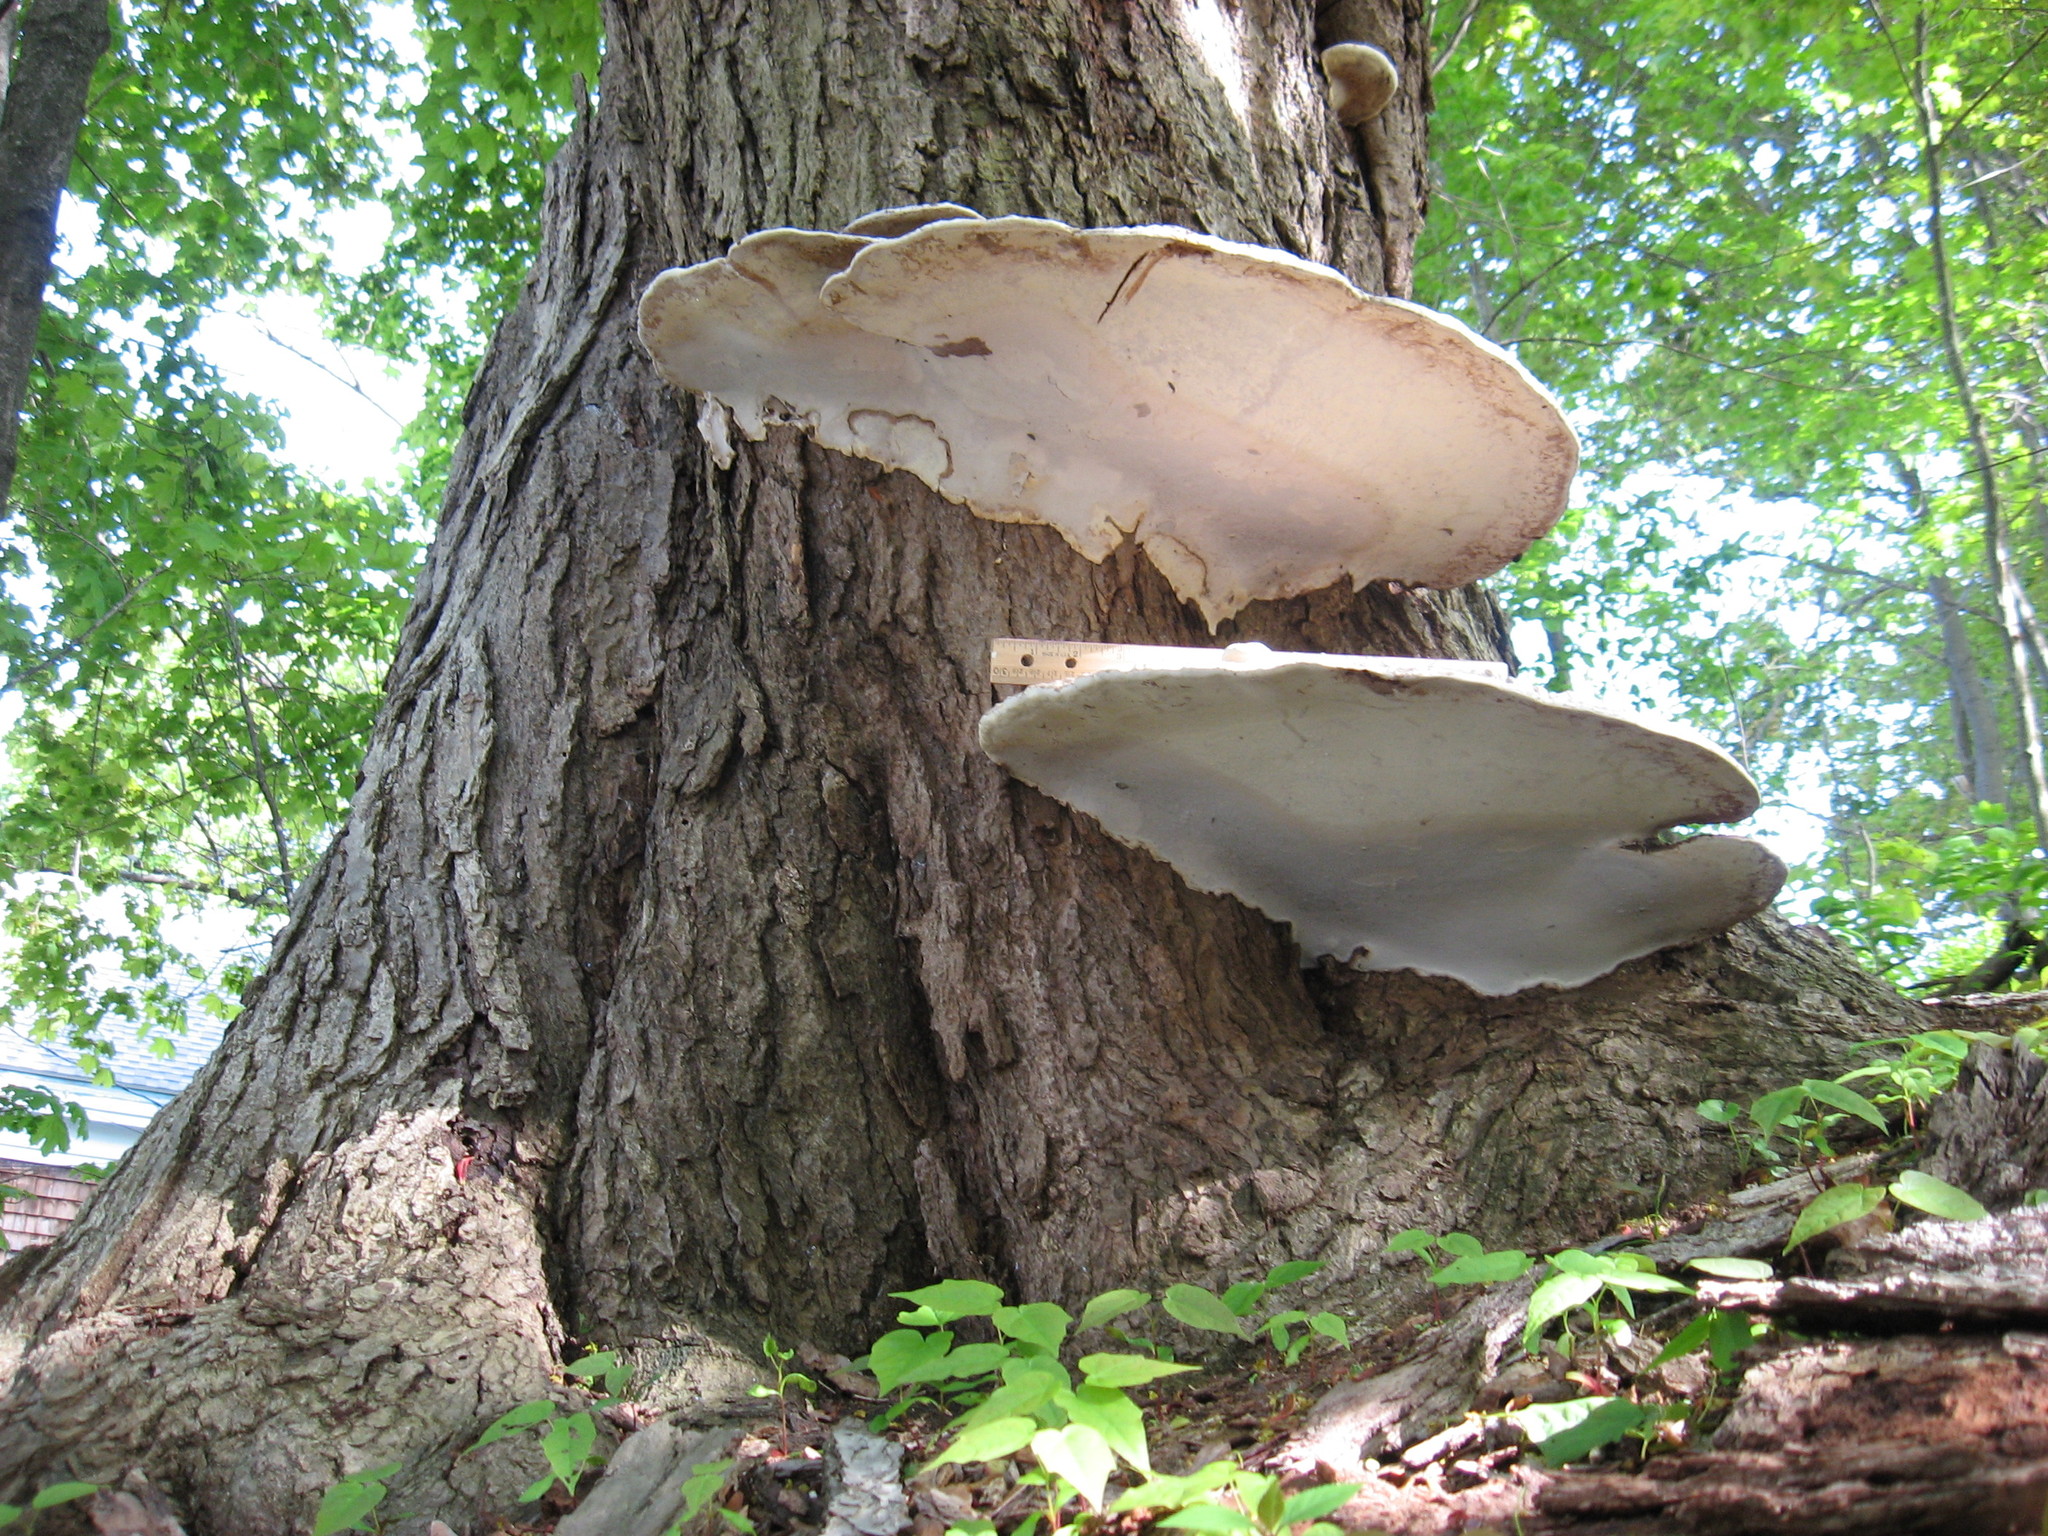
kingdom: Fungi
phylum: Basidiomycota
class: Agaricomycetes
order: Polyporales
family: Polyporaceae
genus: Ganoderma
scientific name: Ganoderma applanatum
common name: Artist's bracket
